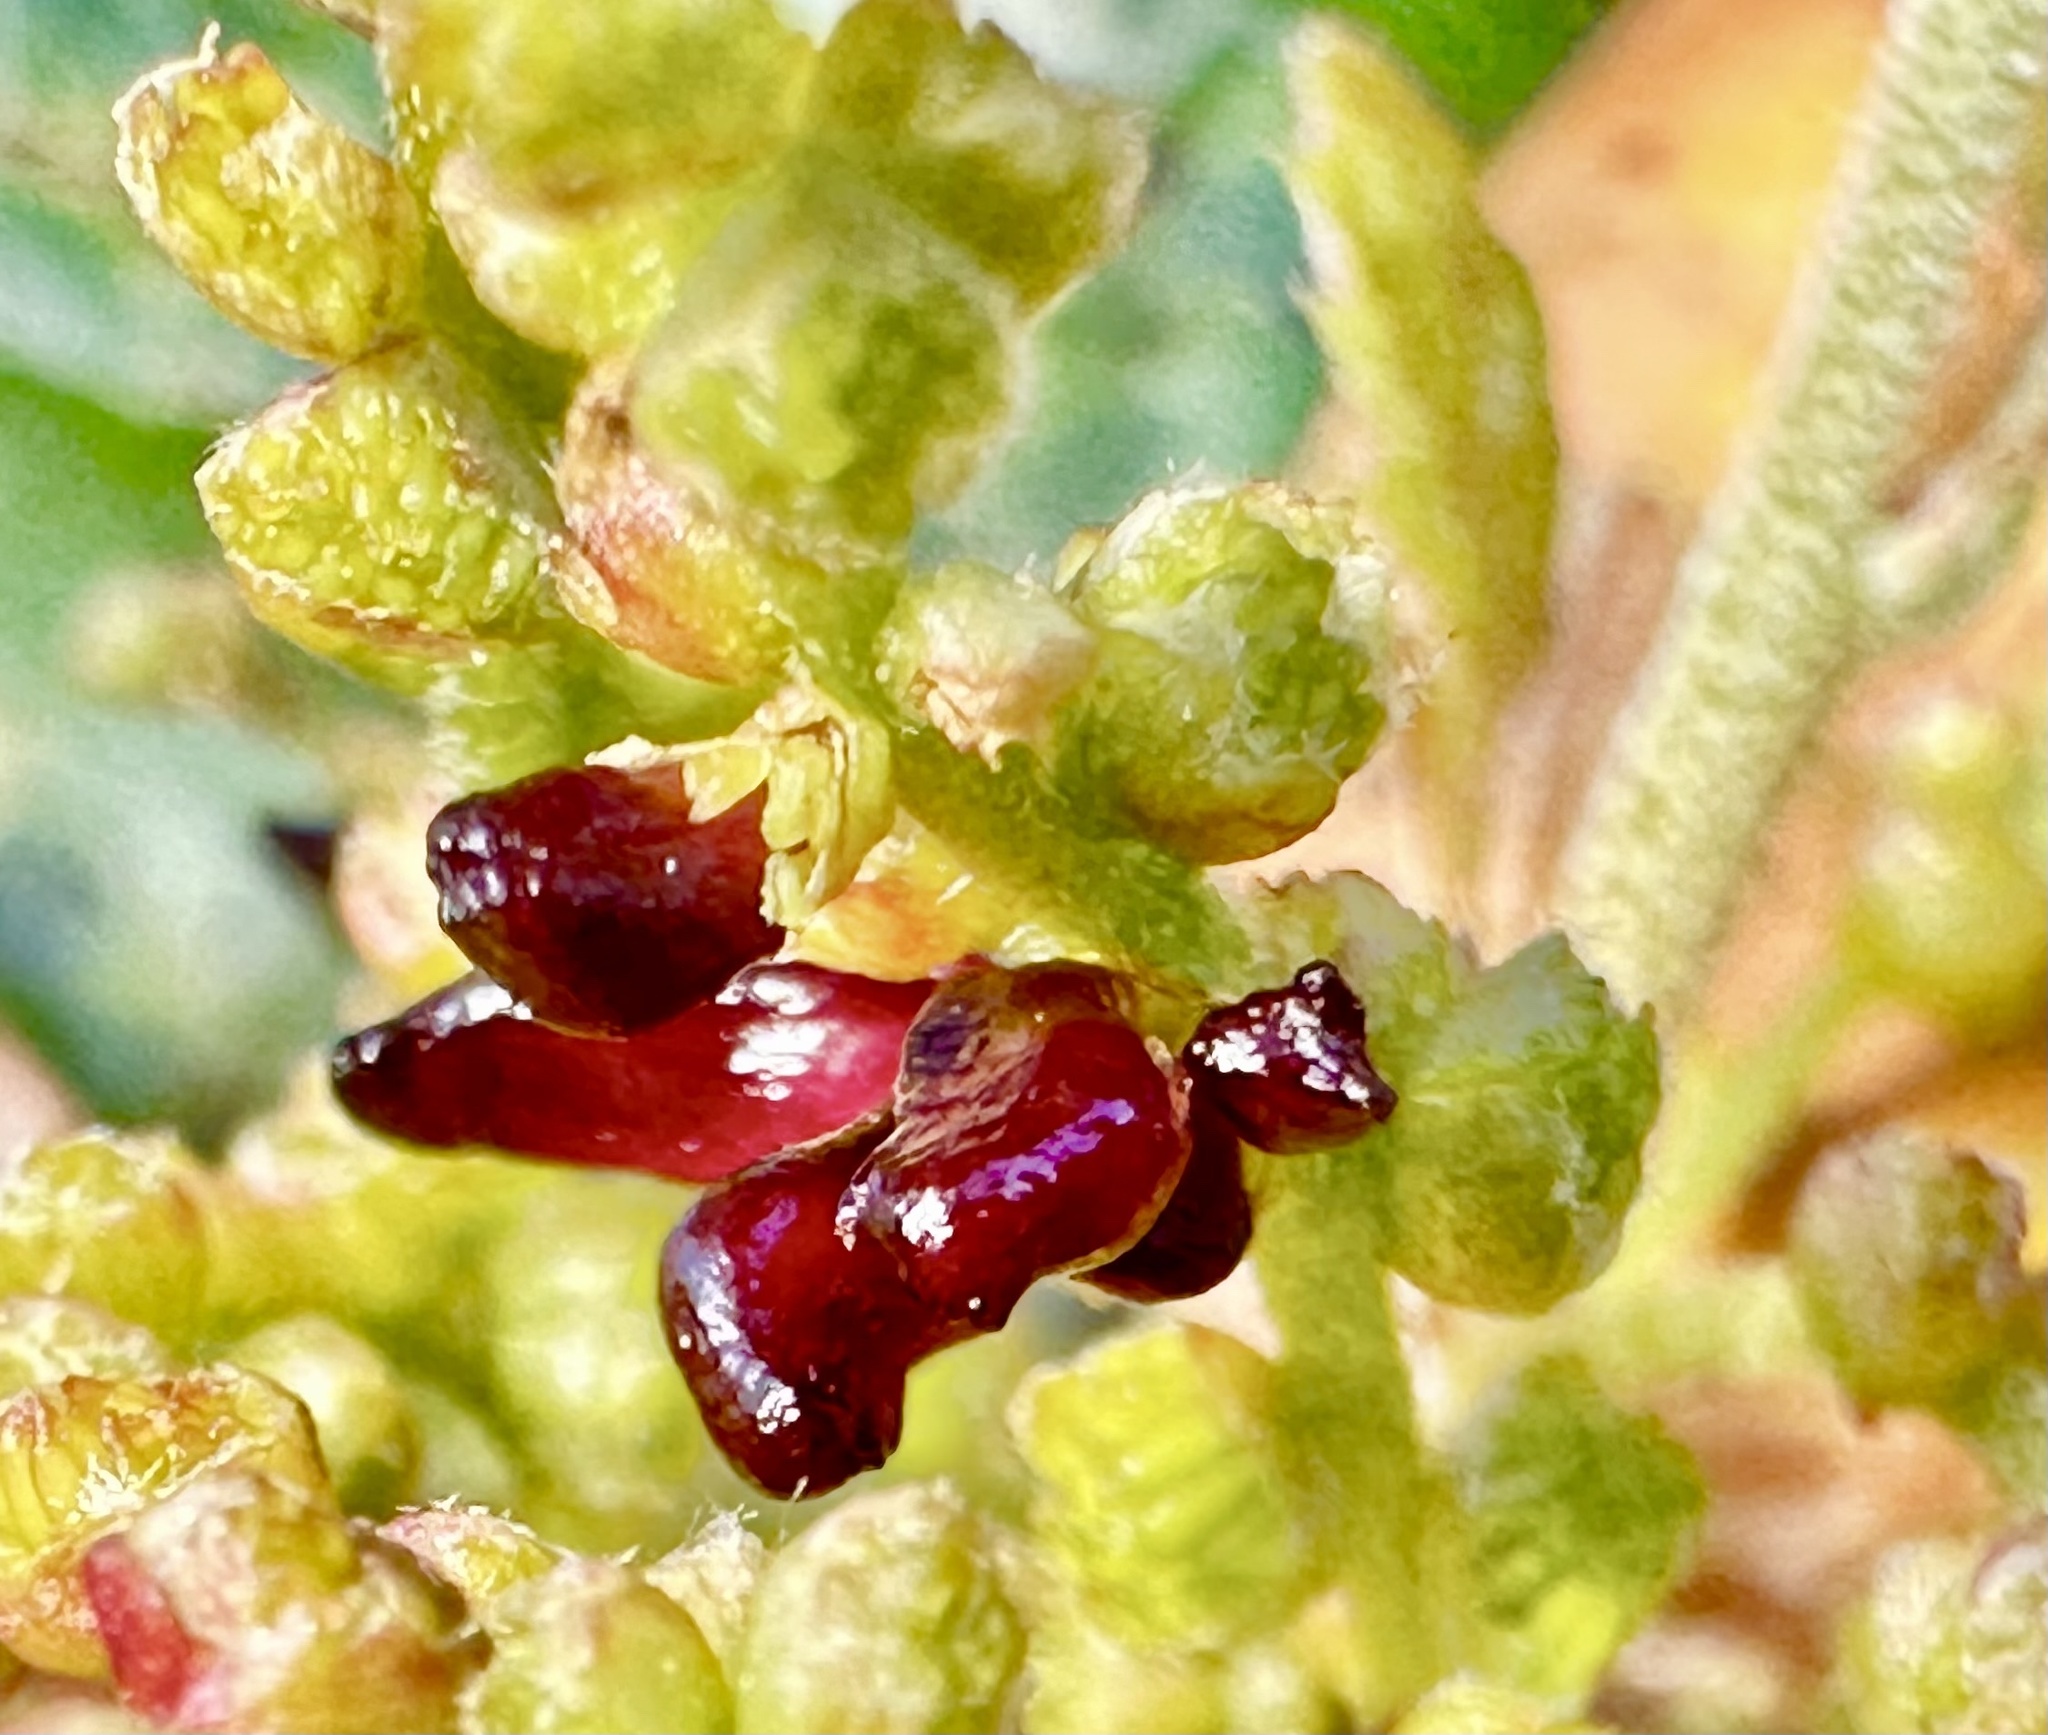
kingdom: Animalia
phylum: Arthropoda
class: Insecta
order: Hymenoptera
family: Cynipidae
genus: Dryocosmus
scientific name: Dryocosmus
